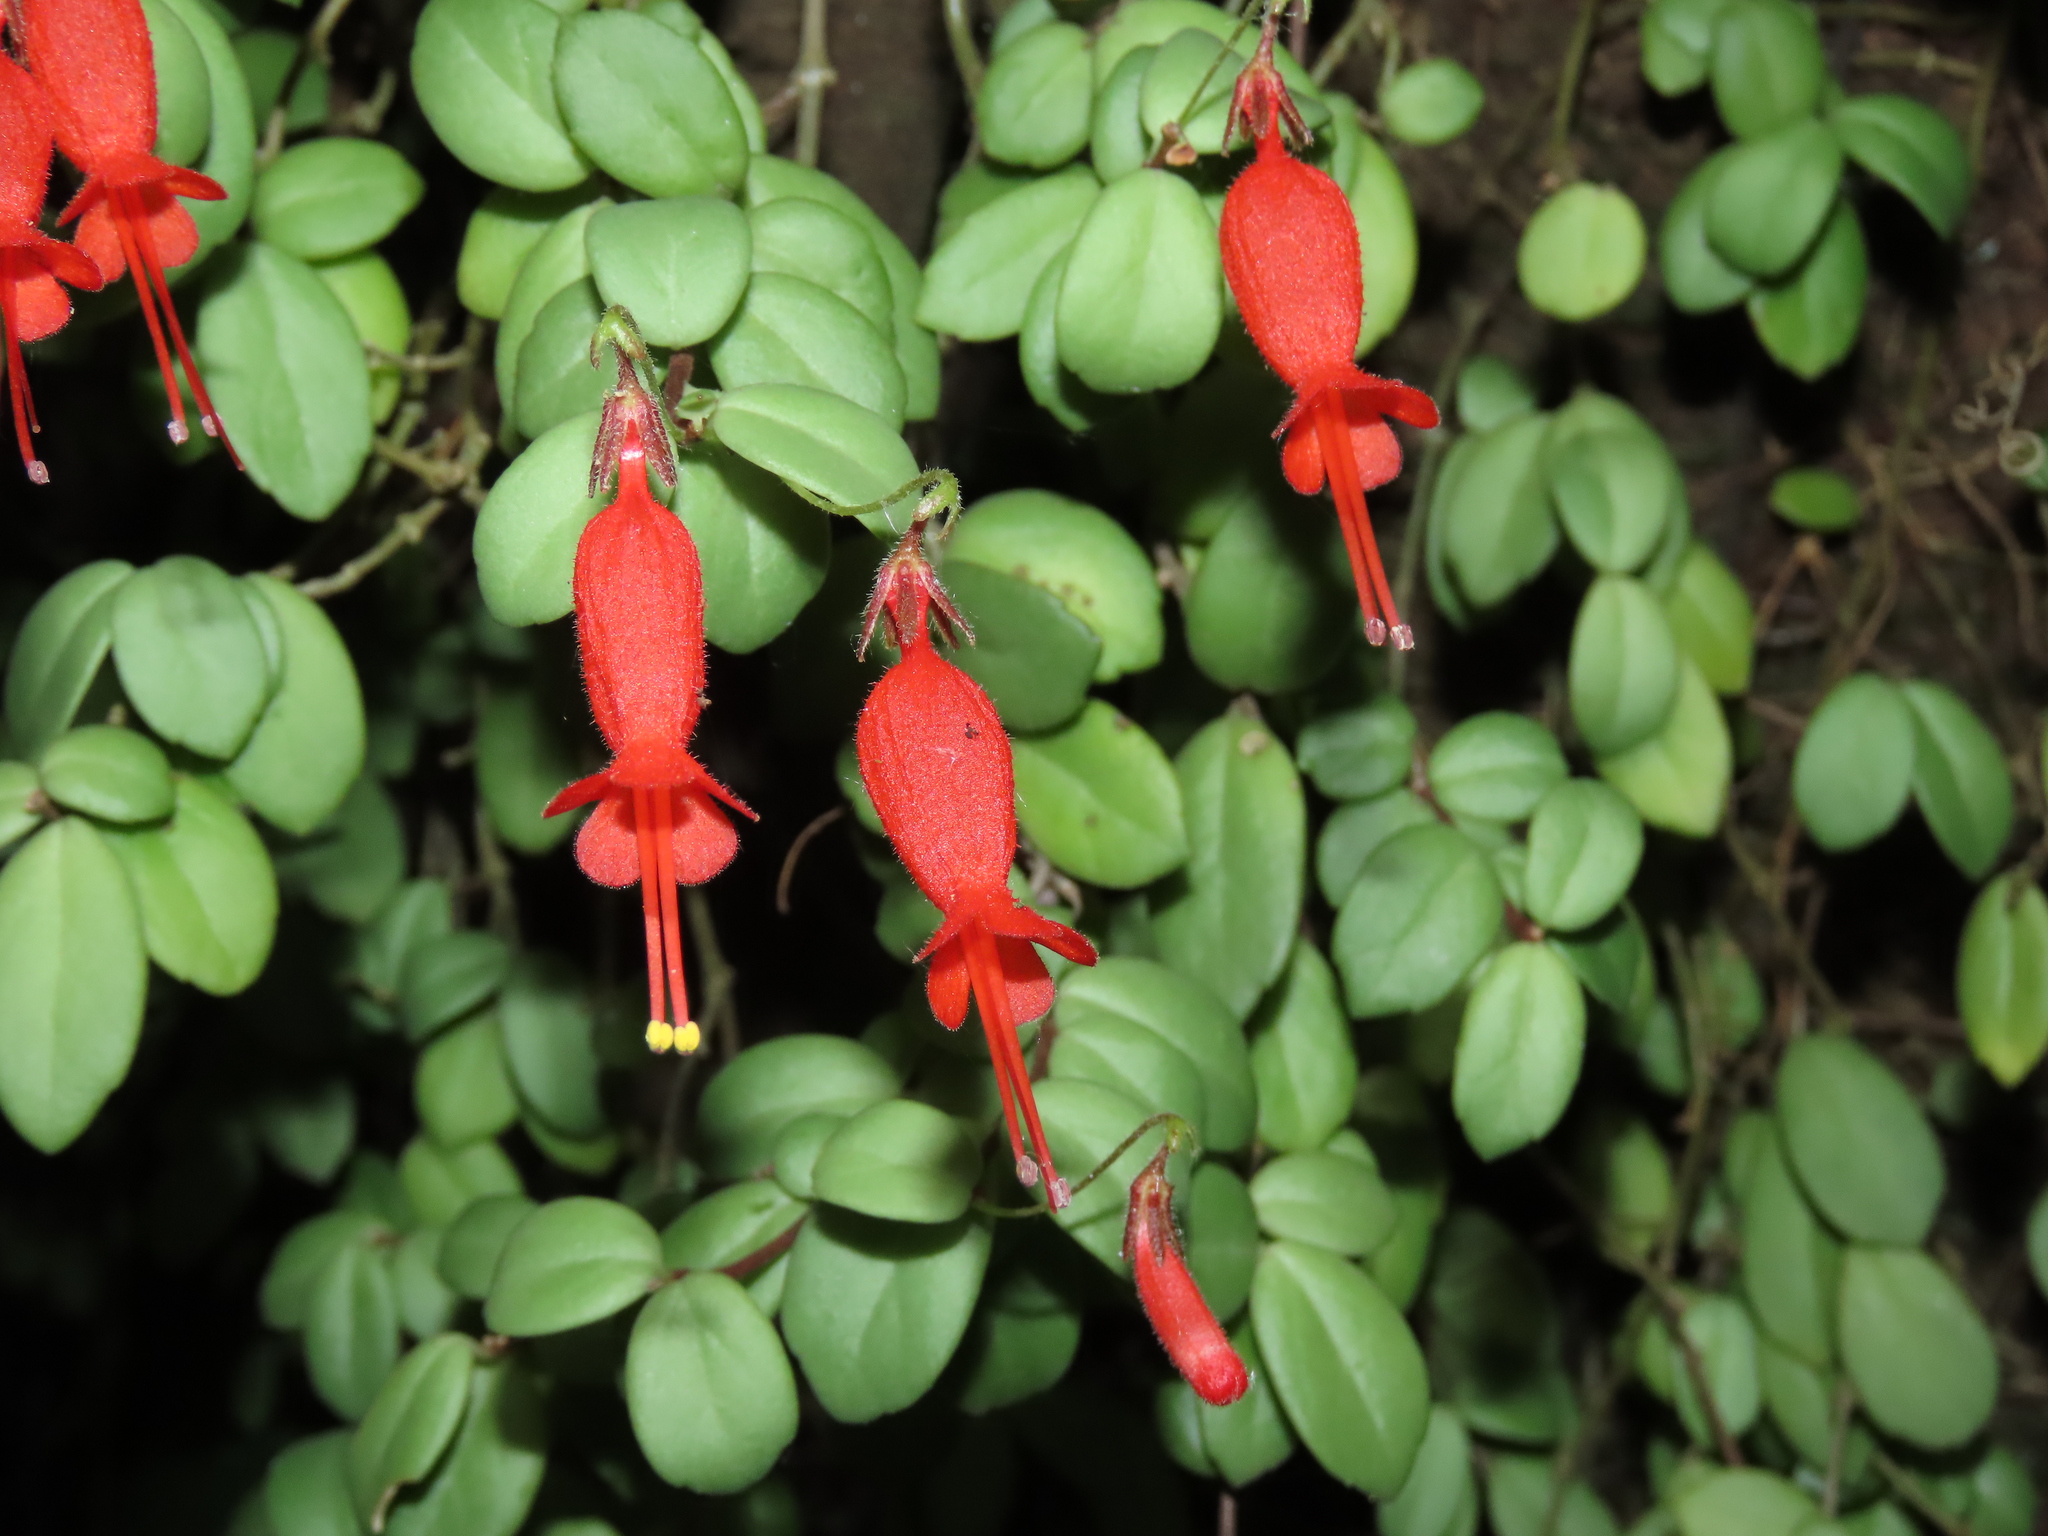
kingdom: Plantae
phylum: Tracheophyta
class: Magnoliopsida
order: Lamiales
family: Gesneriaceae
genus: Sarmienta
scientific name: Sarmienta scandens
